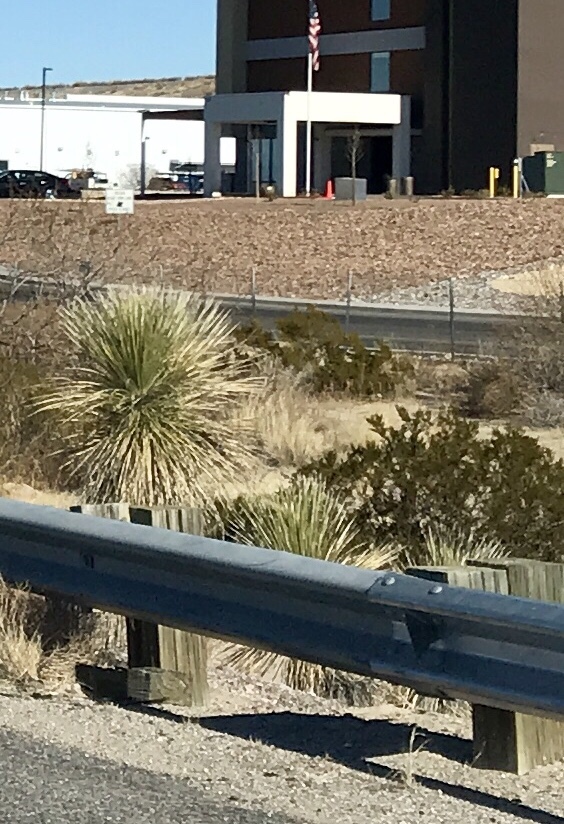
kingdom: Plantae
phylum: Tracheophyta
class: Liliopsida
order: Asparagales
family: Asparagaceae
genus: Yucca
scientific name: Yucca elata
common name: Palmella
